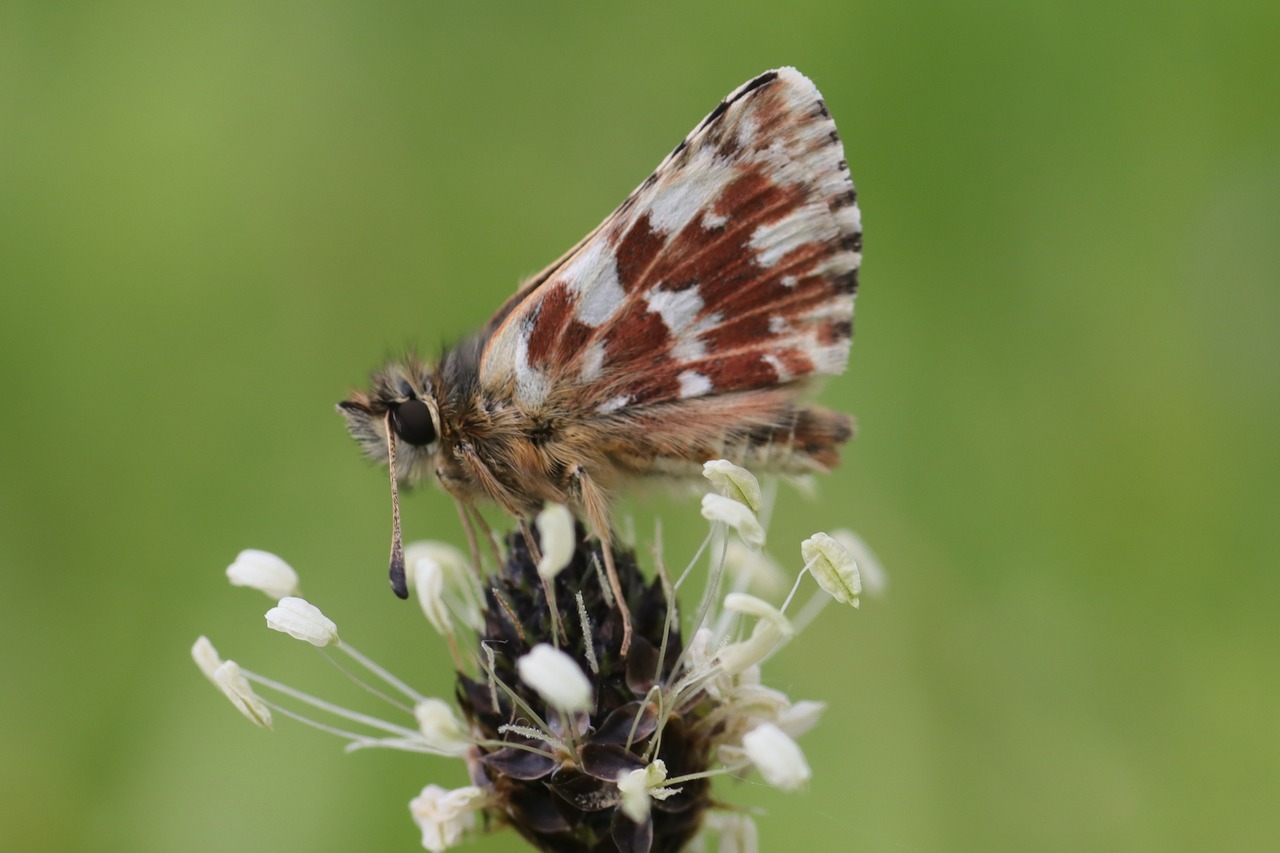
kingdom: Animalia
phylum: Arthropoda
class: Insecta
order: Lepidoptera
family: Hesperiidae
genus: Spialia
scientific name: Spialia sertorius
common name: Red underwing skipper
